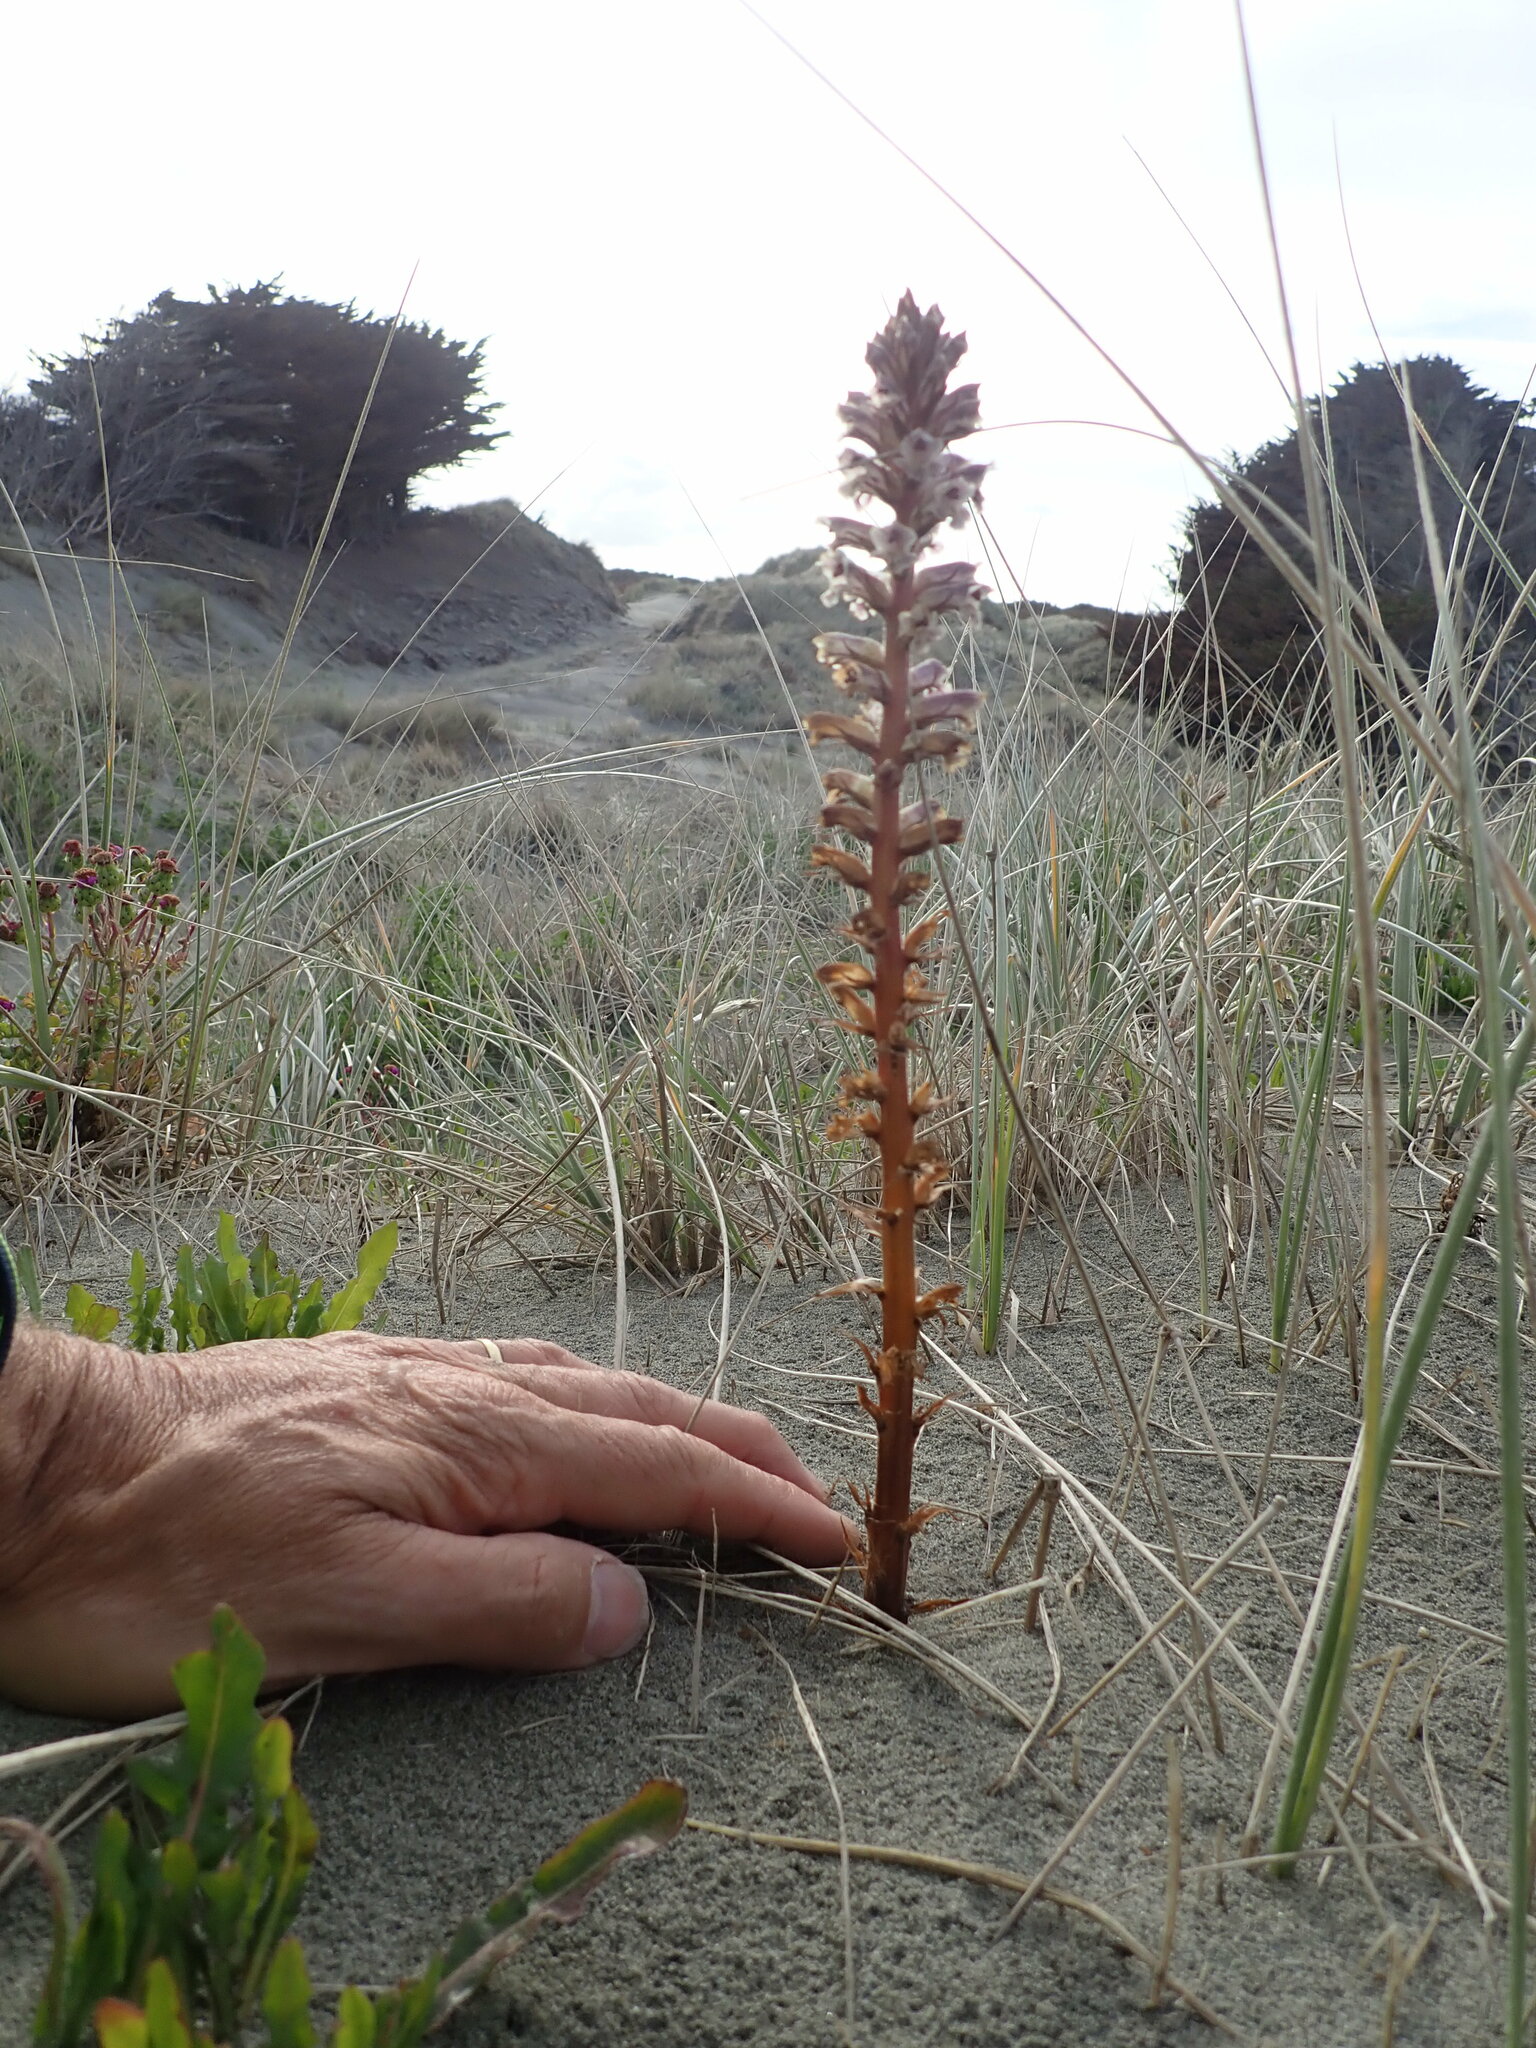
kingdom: Plantae
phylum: Tracheophyta
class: Magnoliopsida
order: Lamiales
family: Orobanchaceae
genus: Orobanche
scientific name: Orobanche minor
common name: Common broomrape
